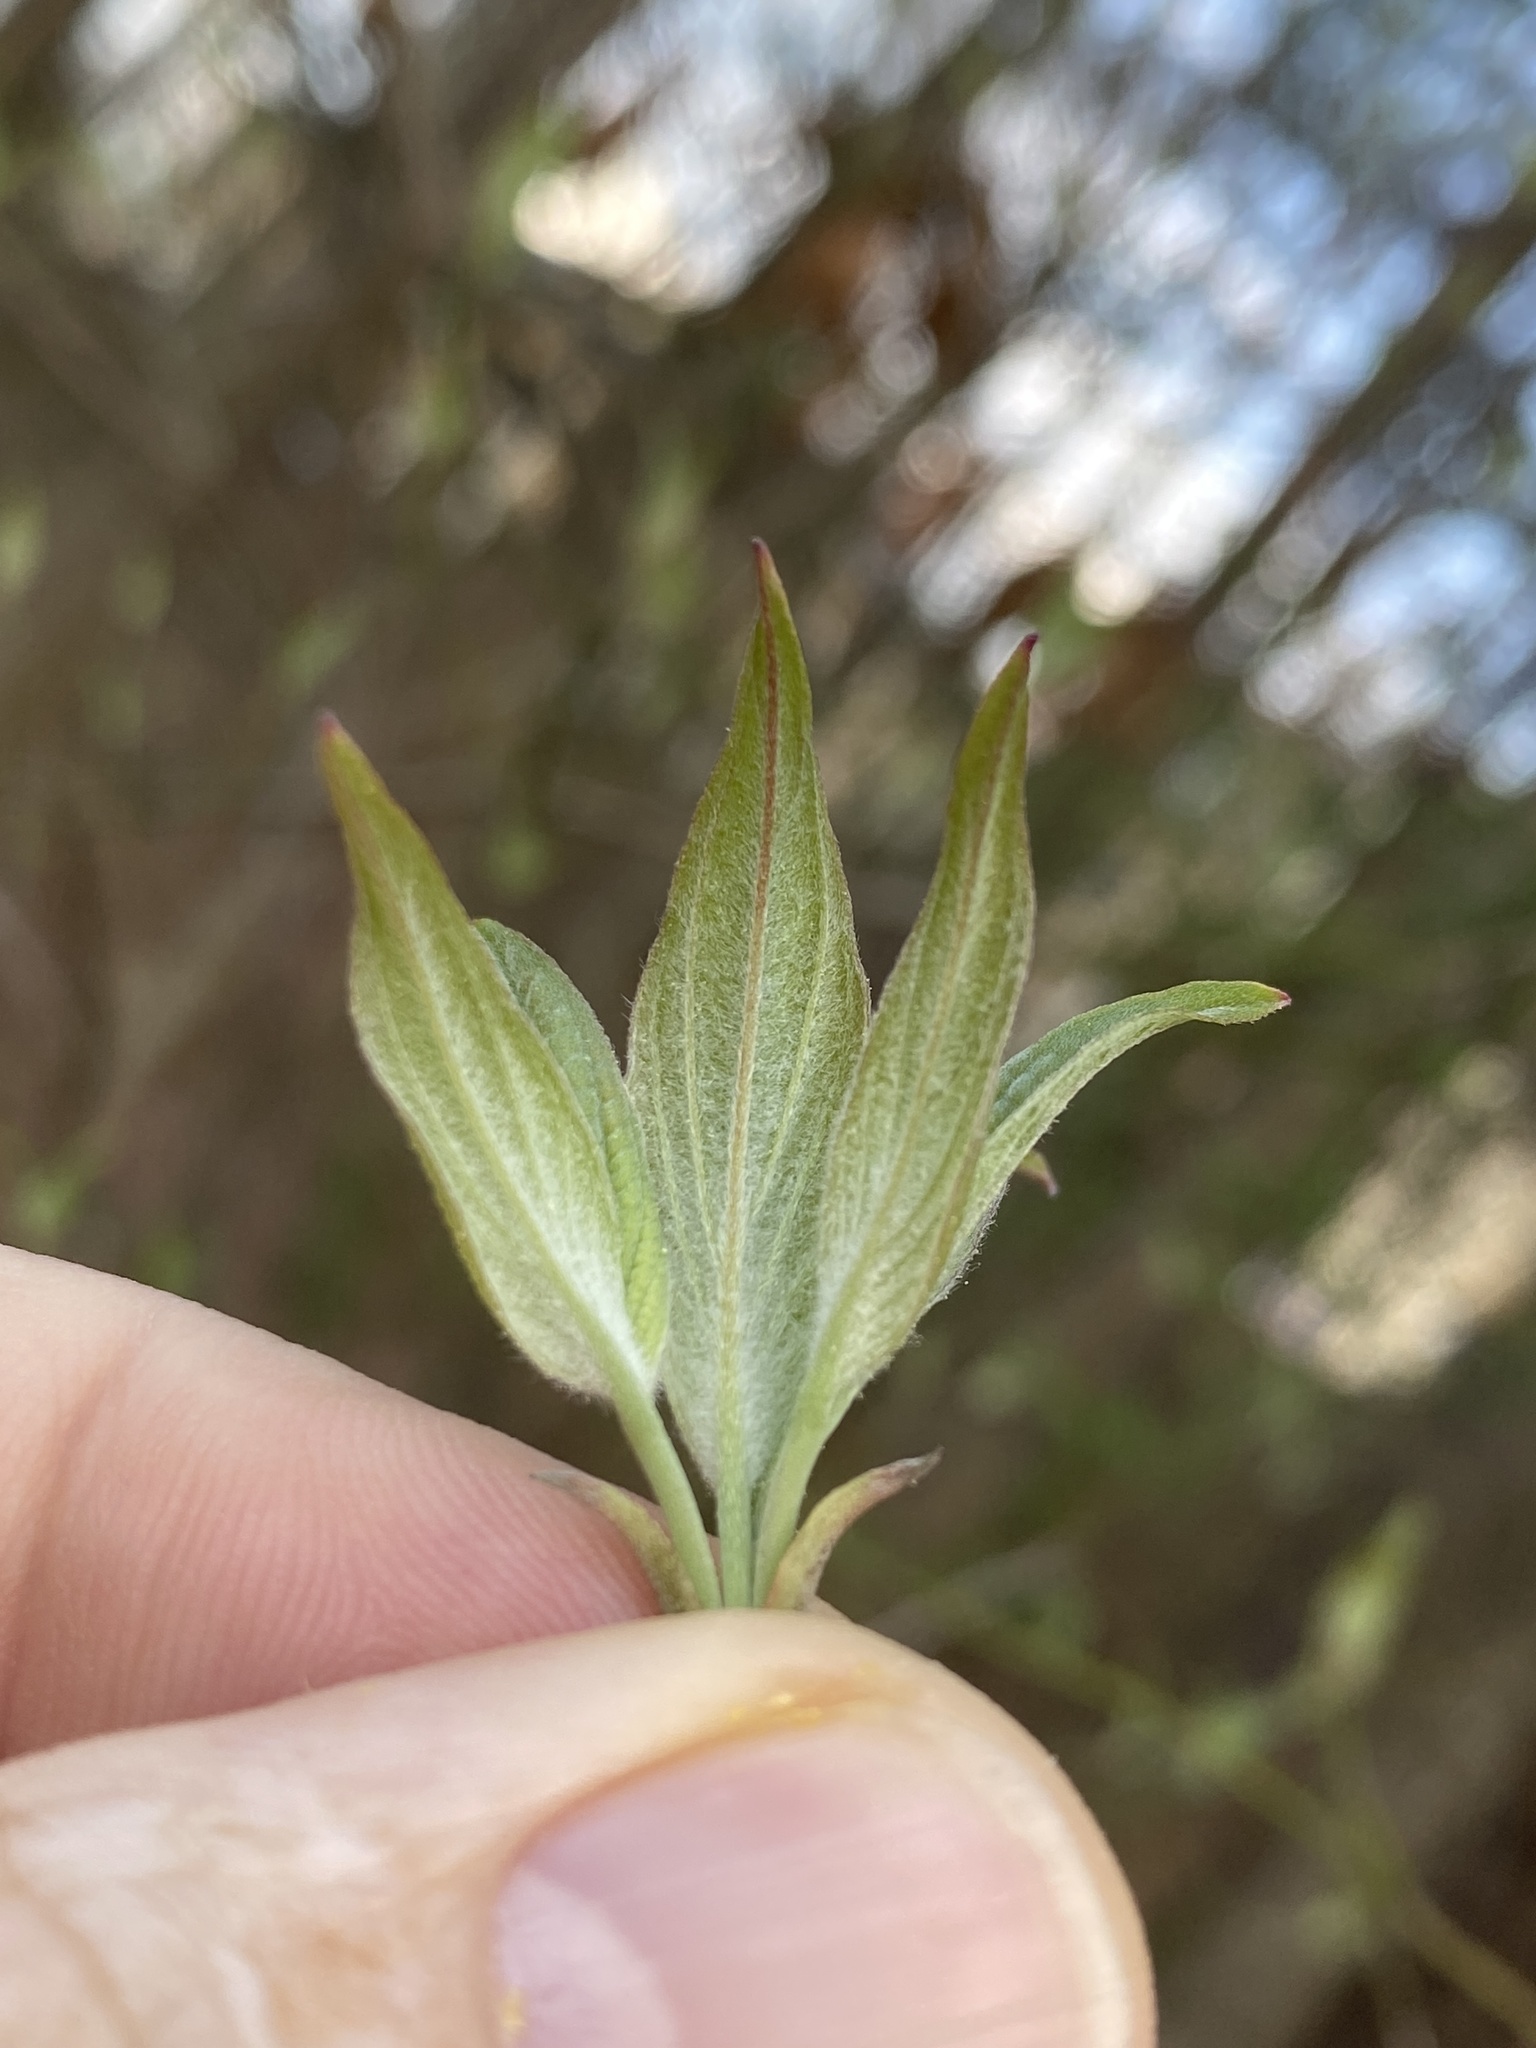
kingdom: Plantae
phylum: Tracheophyta
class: Magnoliopsida
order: Cornales
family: Cornaceae
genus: Cornus
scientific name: Cornus florida
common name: Flowering dogwood
